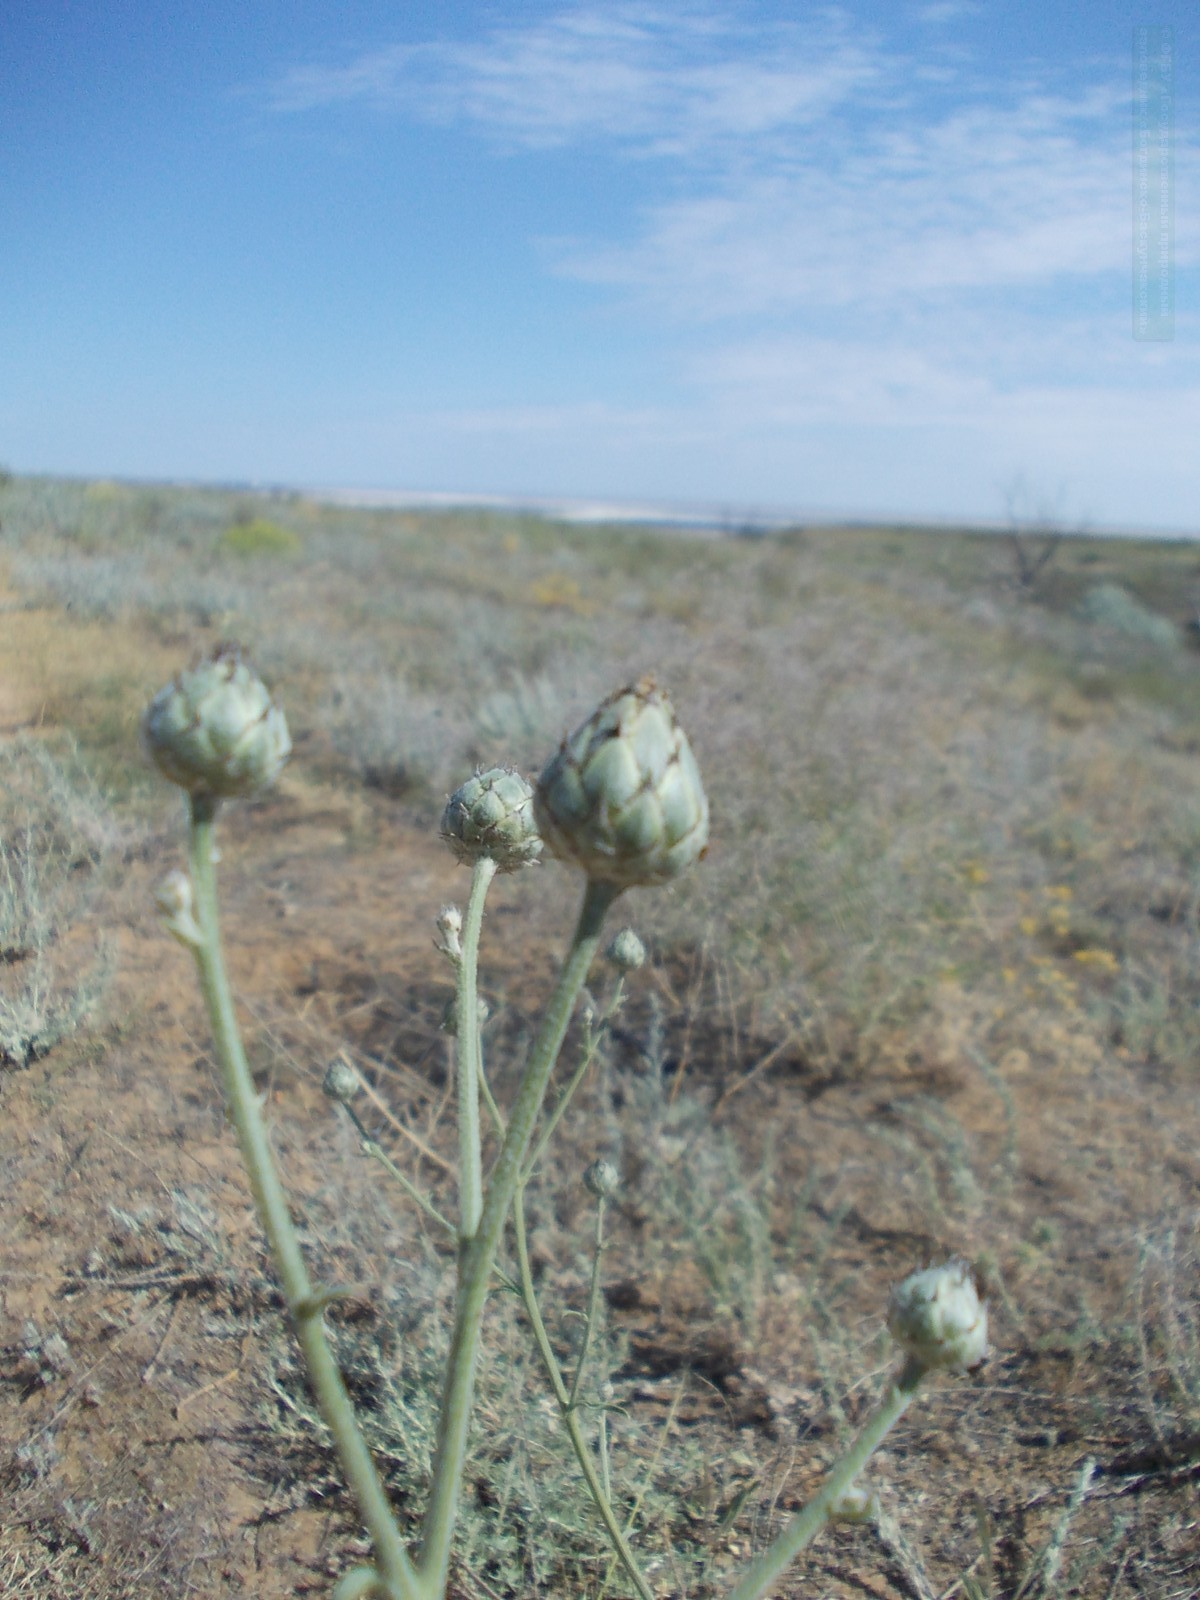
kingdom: Plantae
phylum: Tracheophyta
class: Magnoliopsida
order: Asterales
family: Asteraceae
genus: Centaurea
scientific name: Centaurea scabiosa
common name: Greater knapweed
